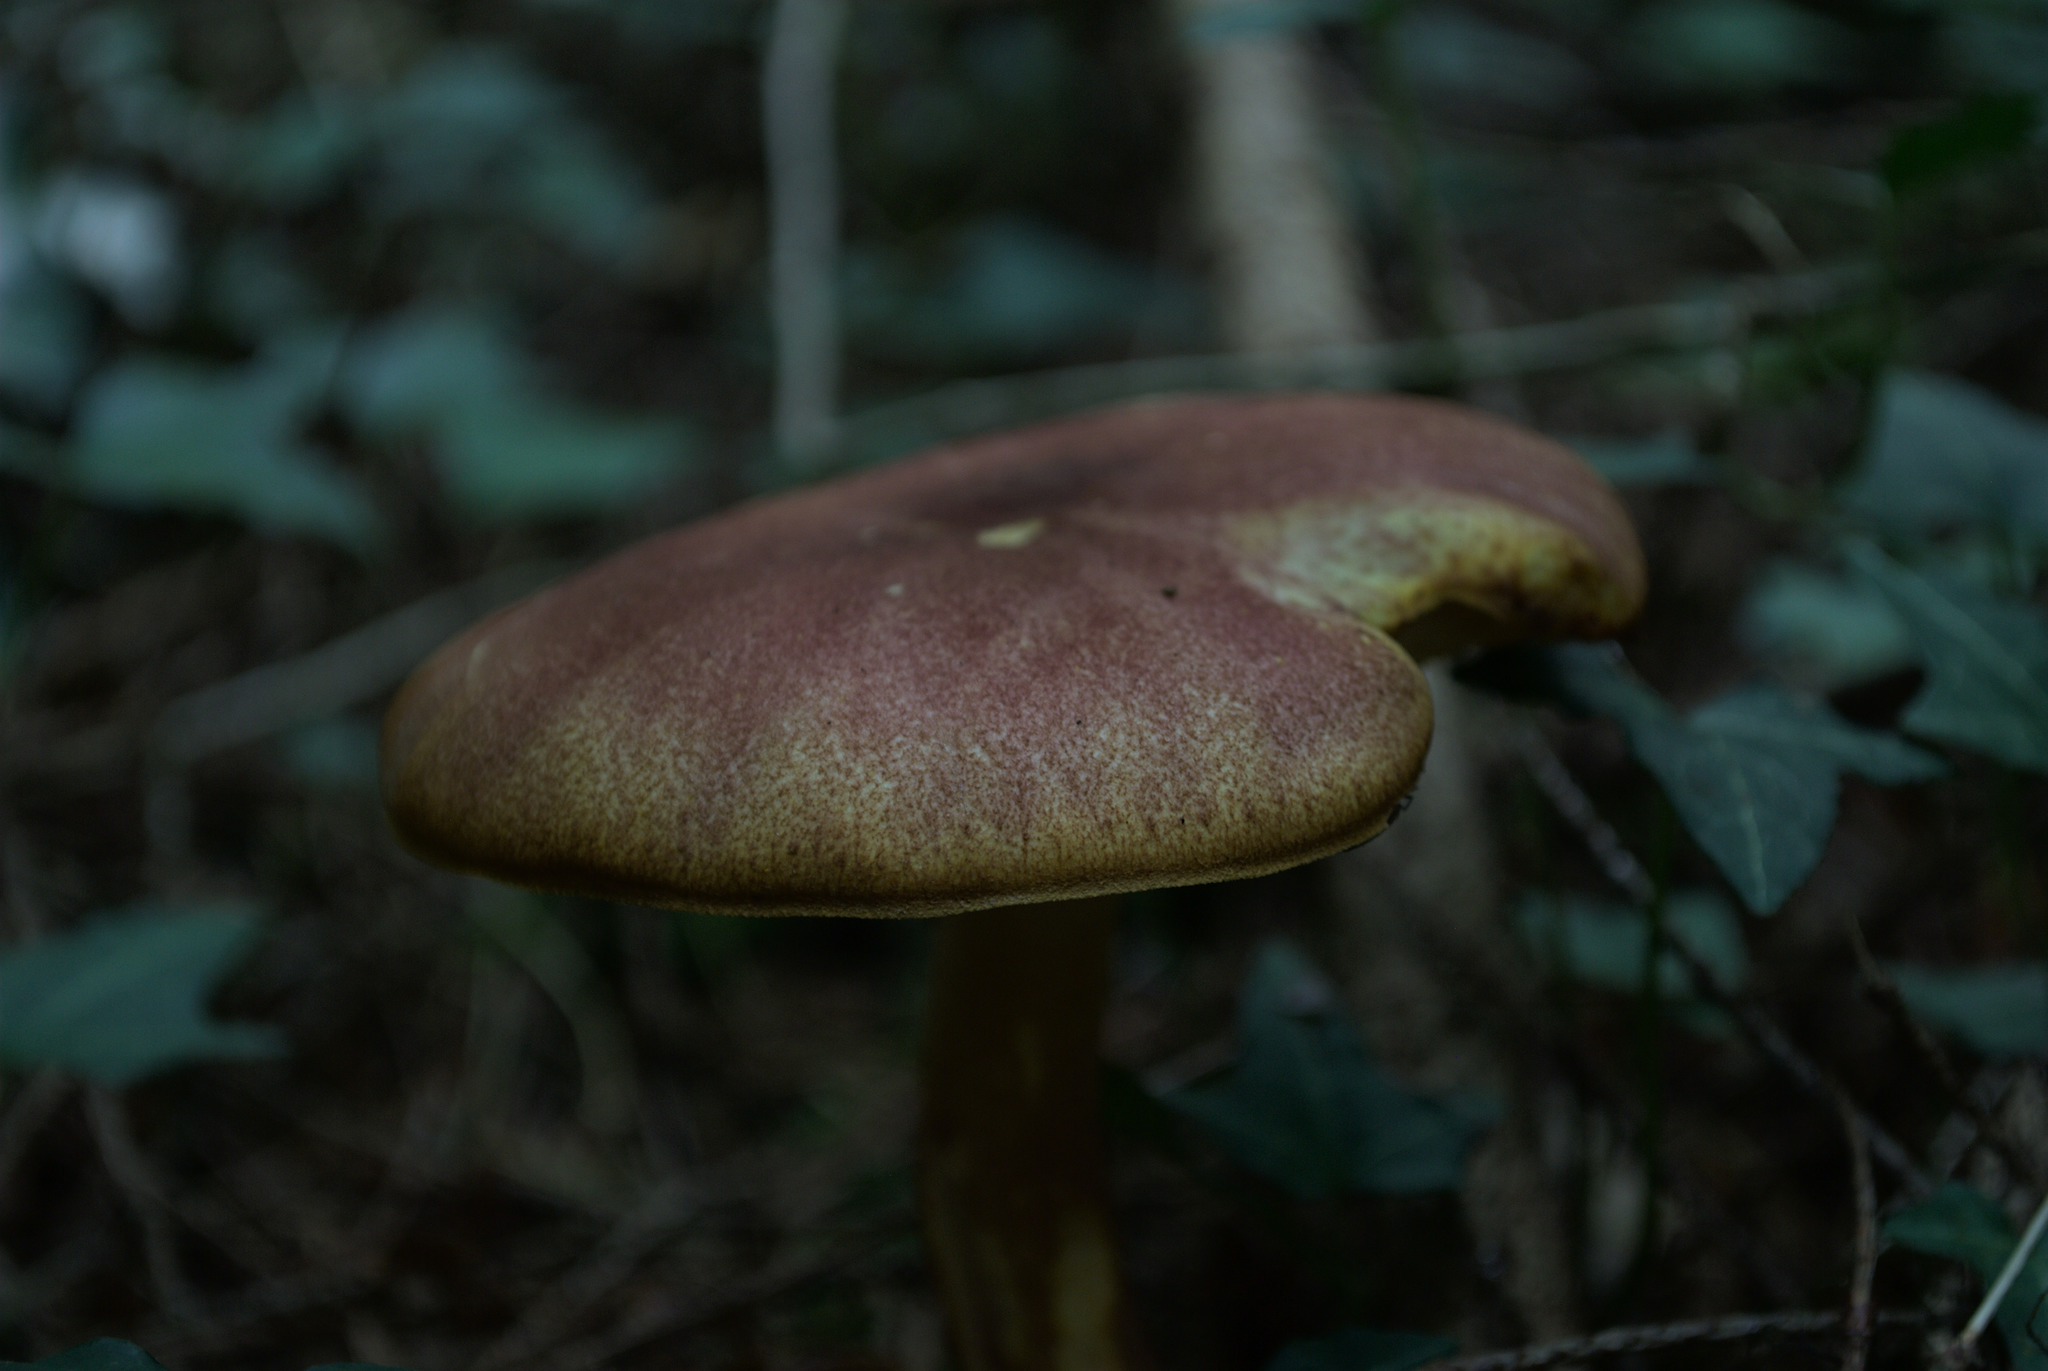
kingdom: Fungi
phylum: Basidiomycota
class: Agaricomycetes
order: Agaricales
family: Tricholomataceae
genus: Tricholomopsis
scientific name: Tricholomopsis rutilans
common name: Plums and custard
